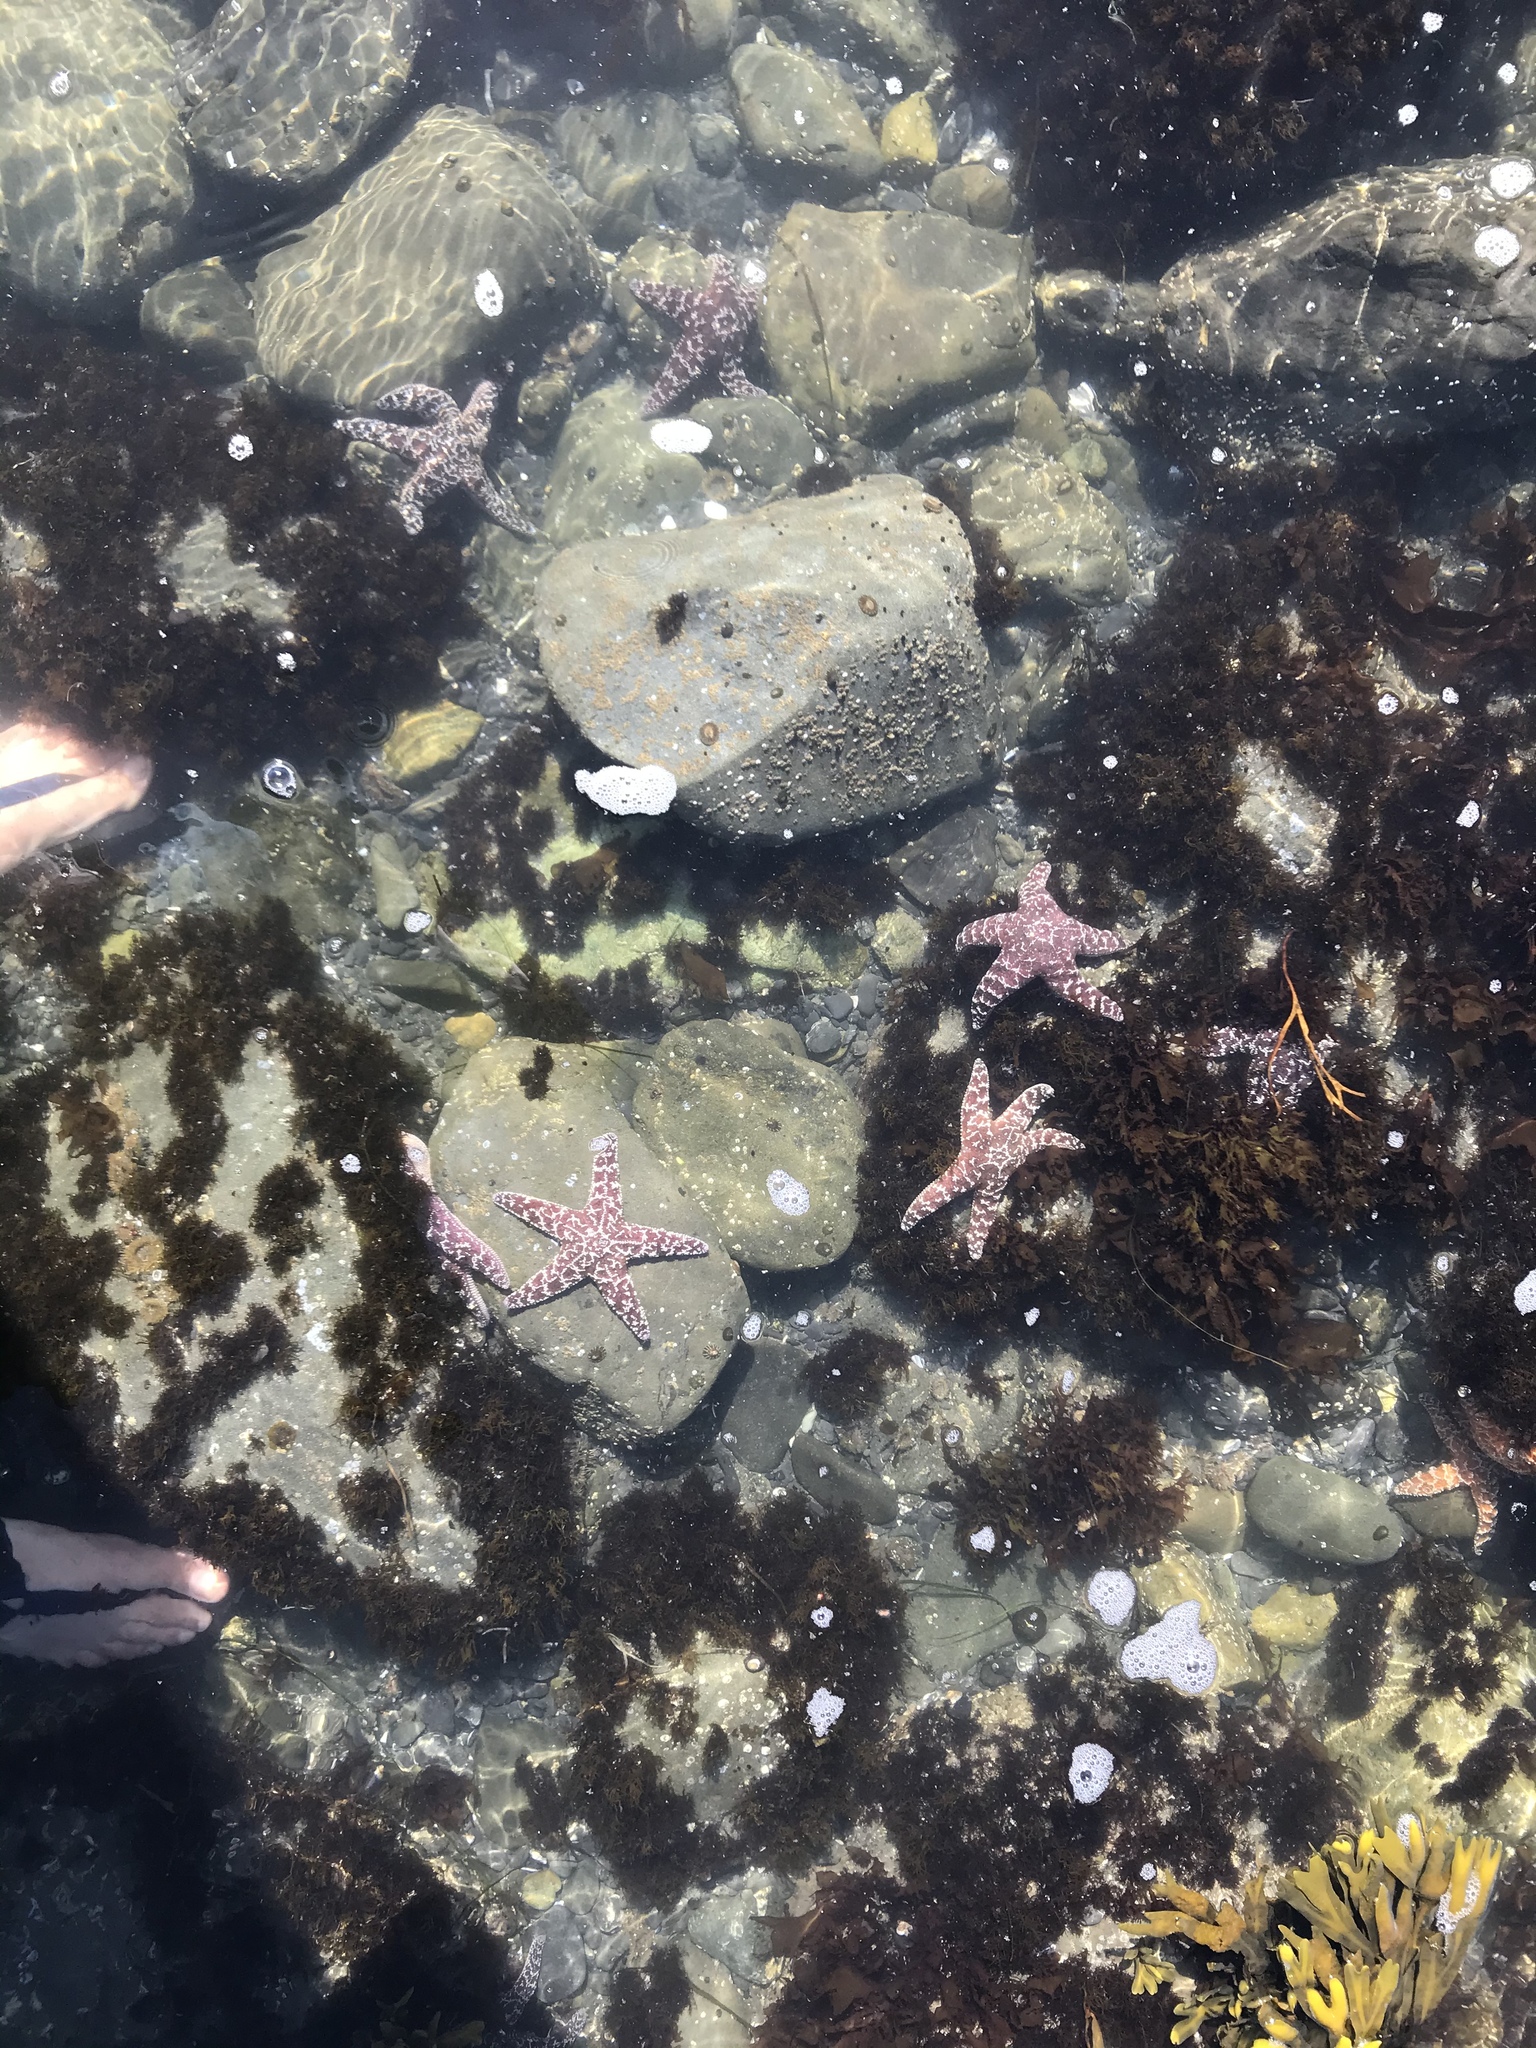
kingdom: Animalia
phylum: Echinodermata
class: Asteroidea
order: Forcipulatida
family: Asteriidae
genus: Pisaster
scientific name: Pisaster ochraceus
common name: Ochre stars
